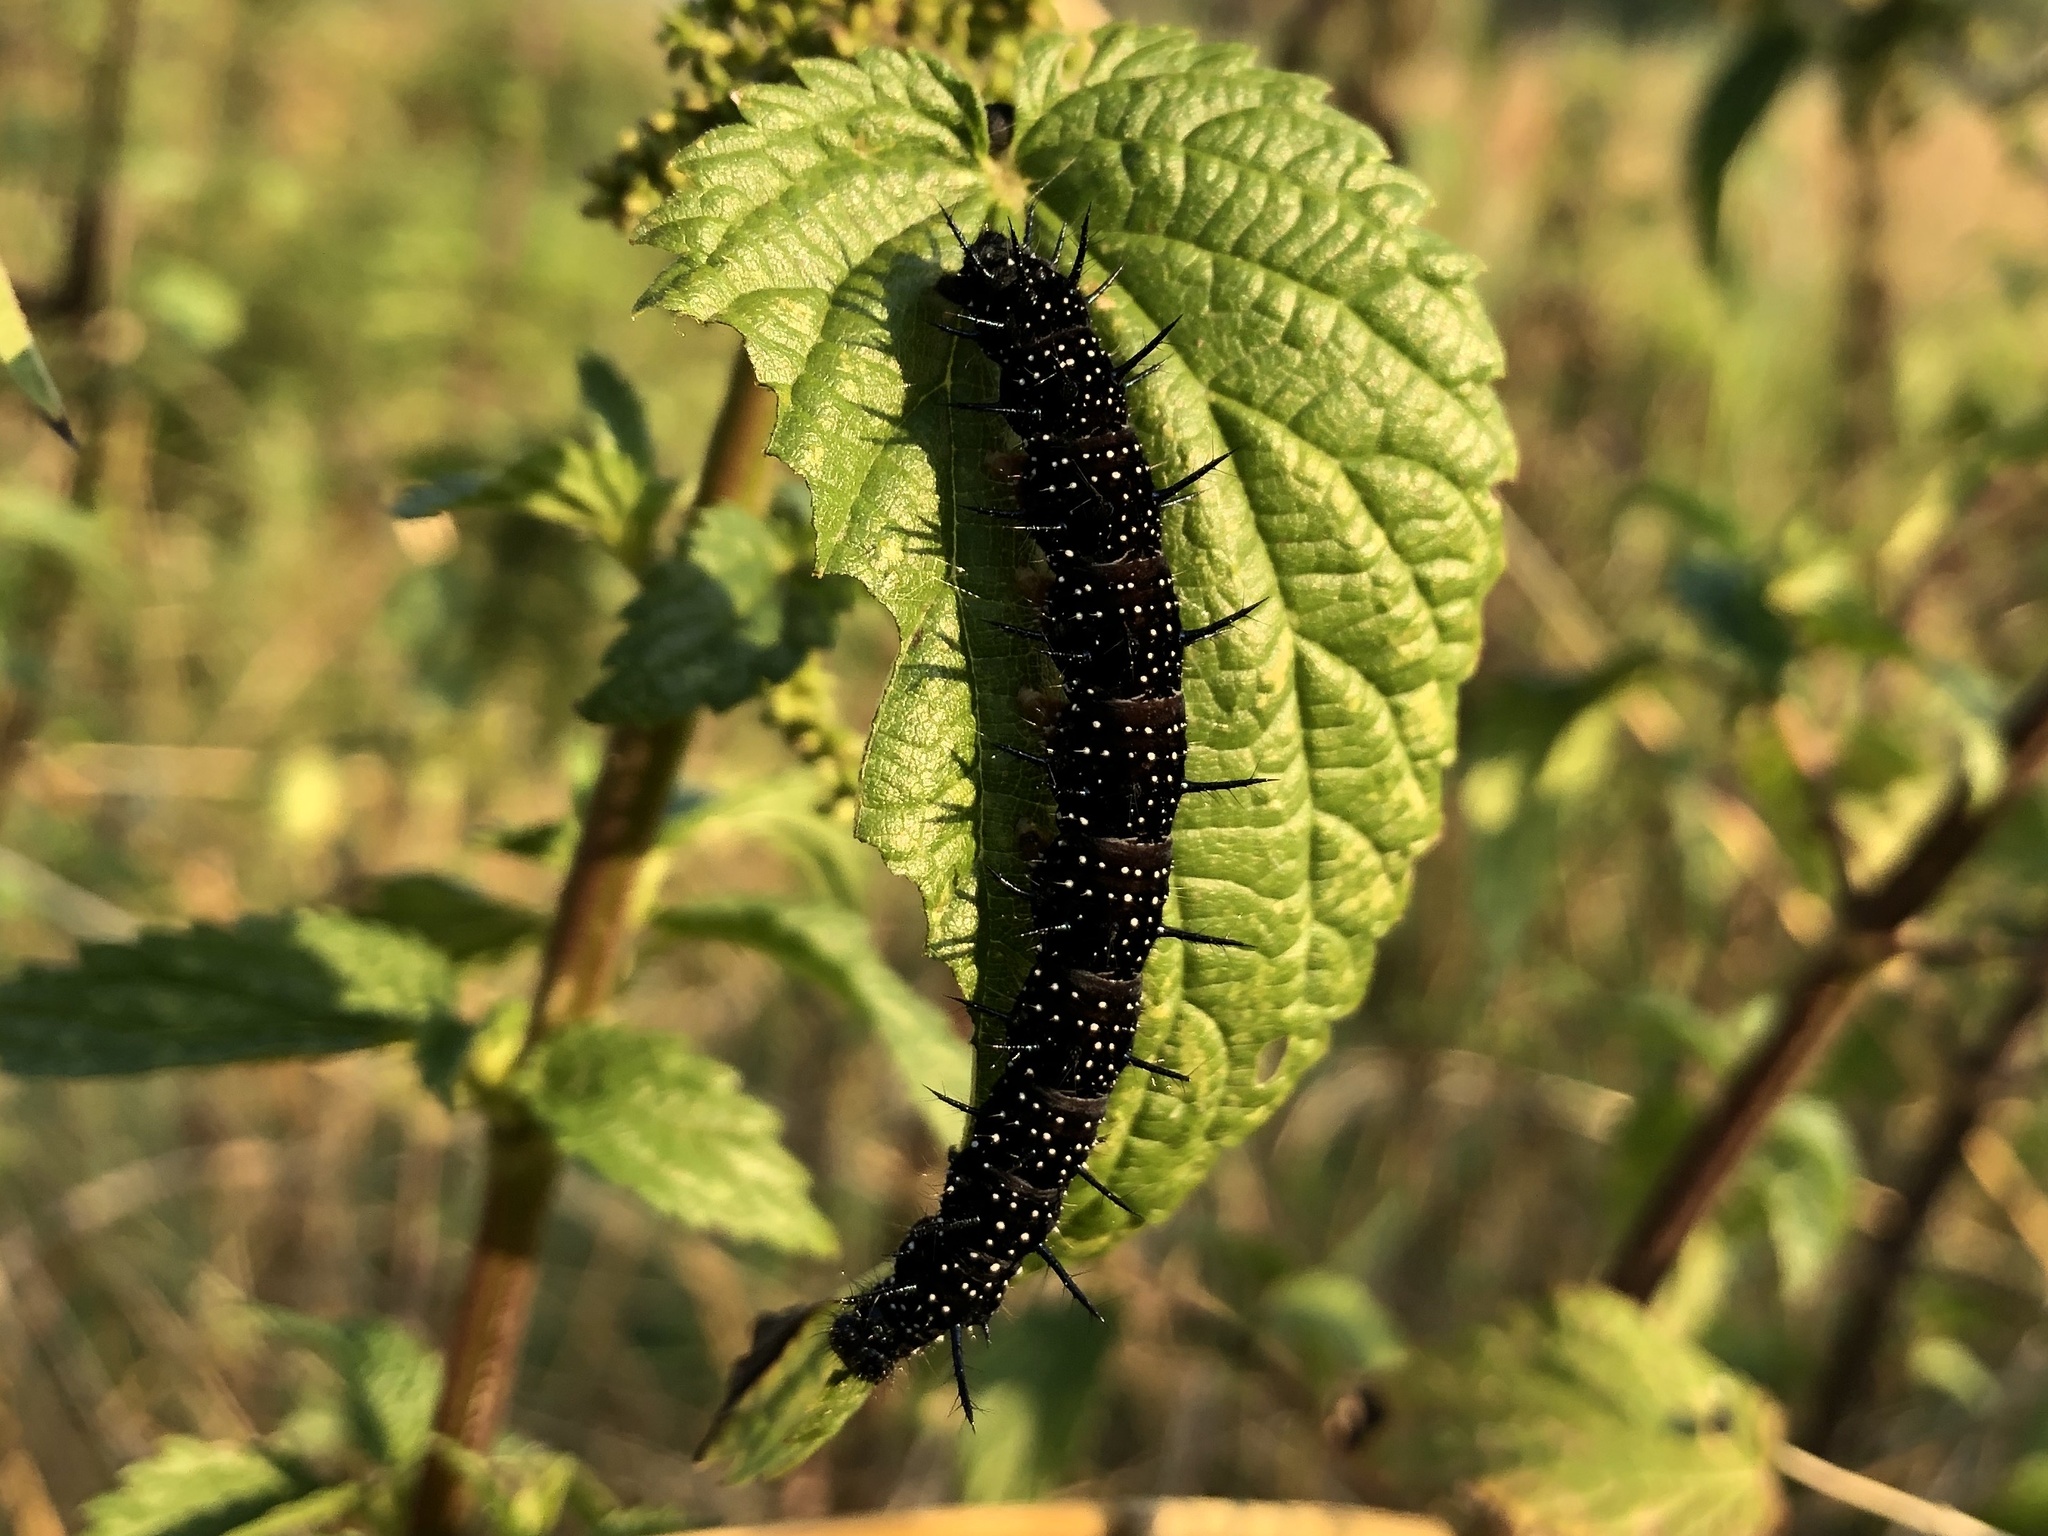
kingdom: Animalia
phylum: Arthropoda
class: Insecta
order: Lepidoptera
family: Nymphalidae
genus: Aglais
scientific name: Aglais io
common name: Peacock
